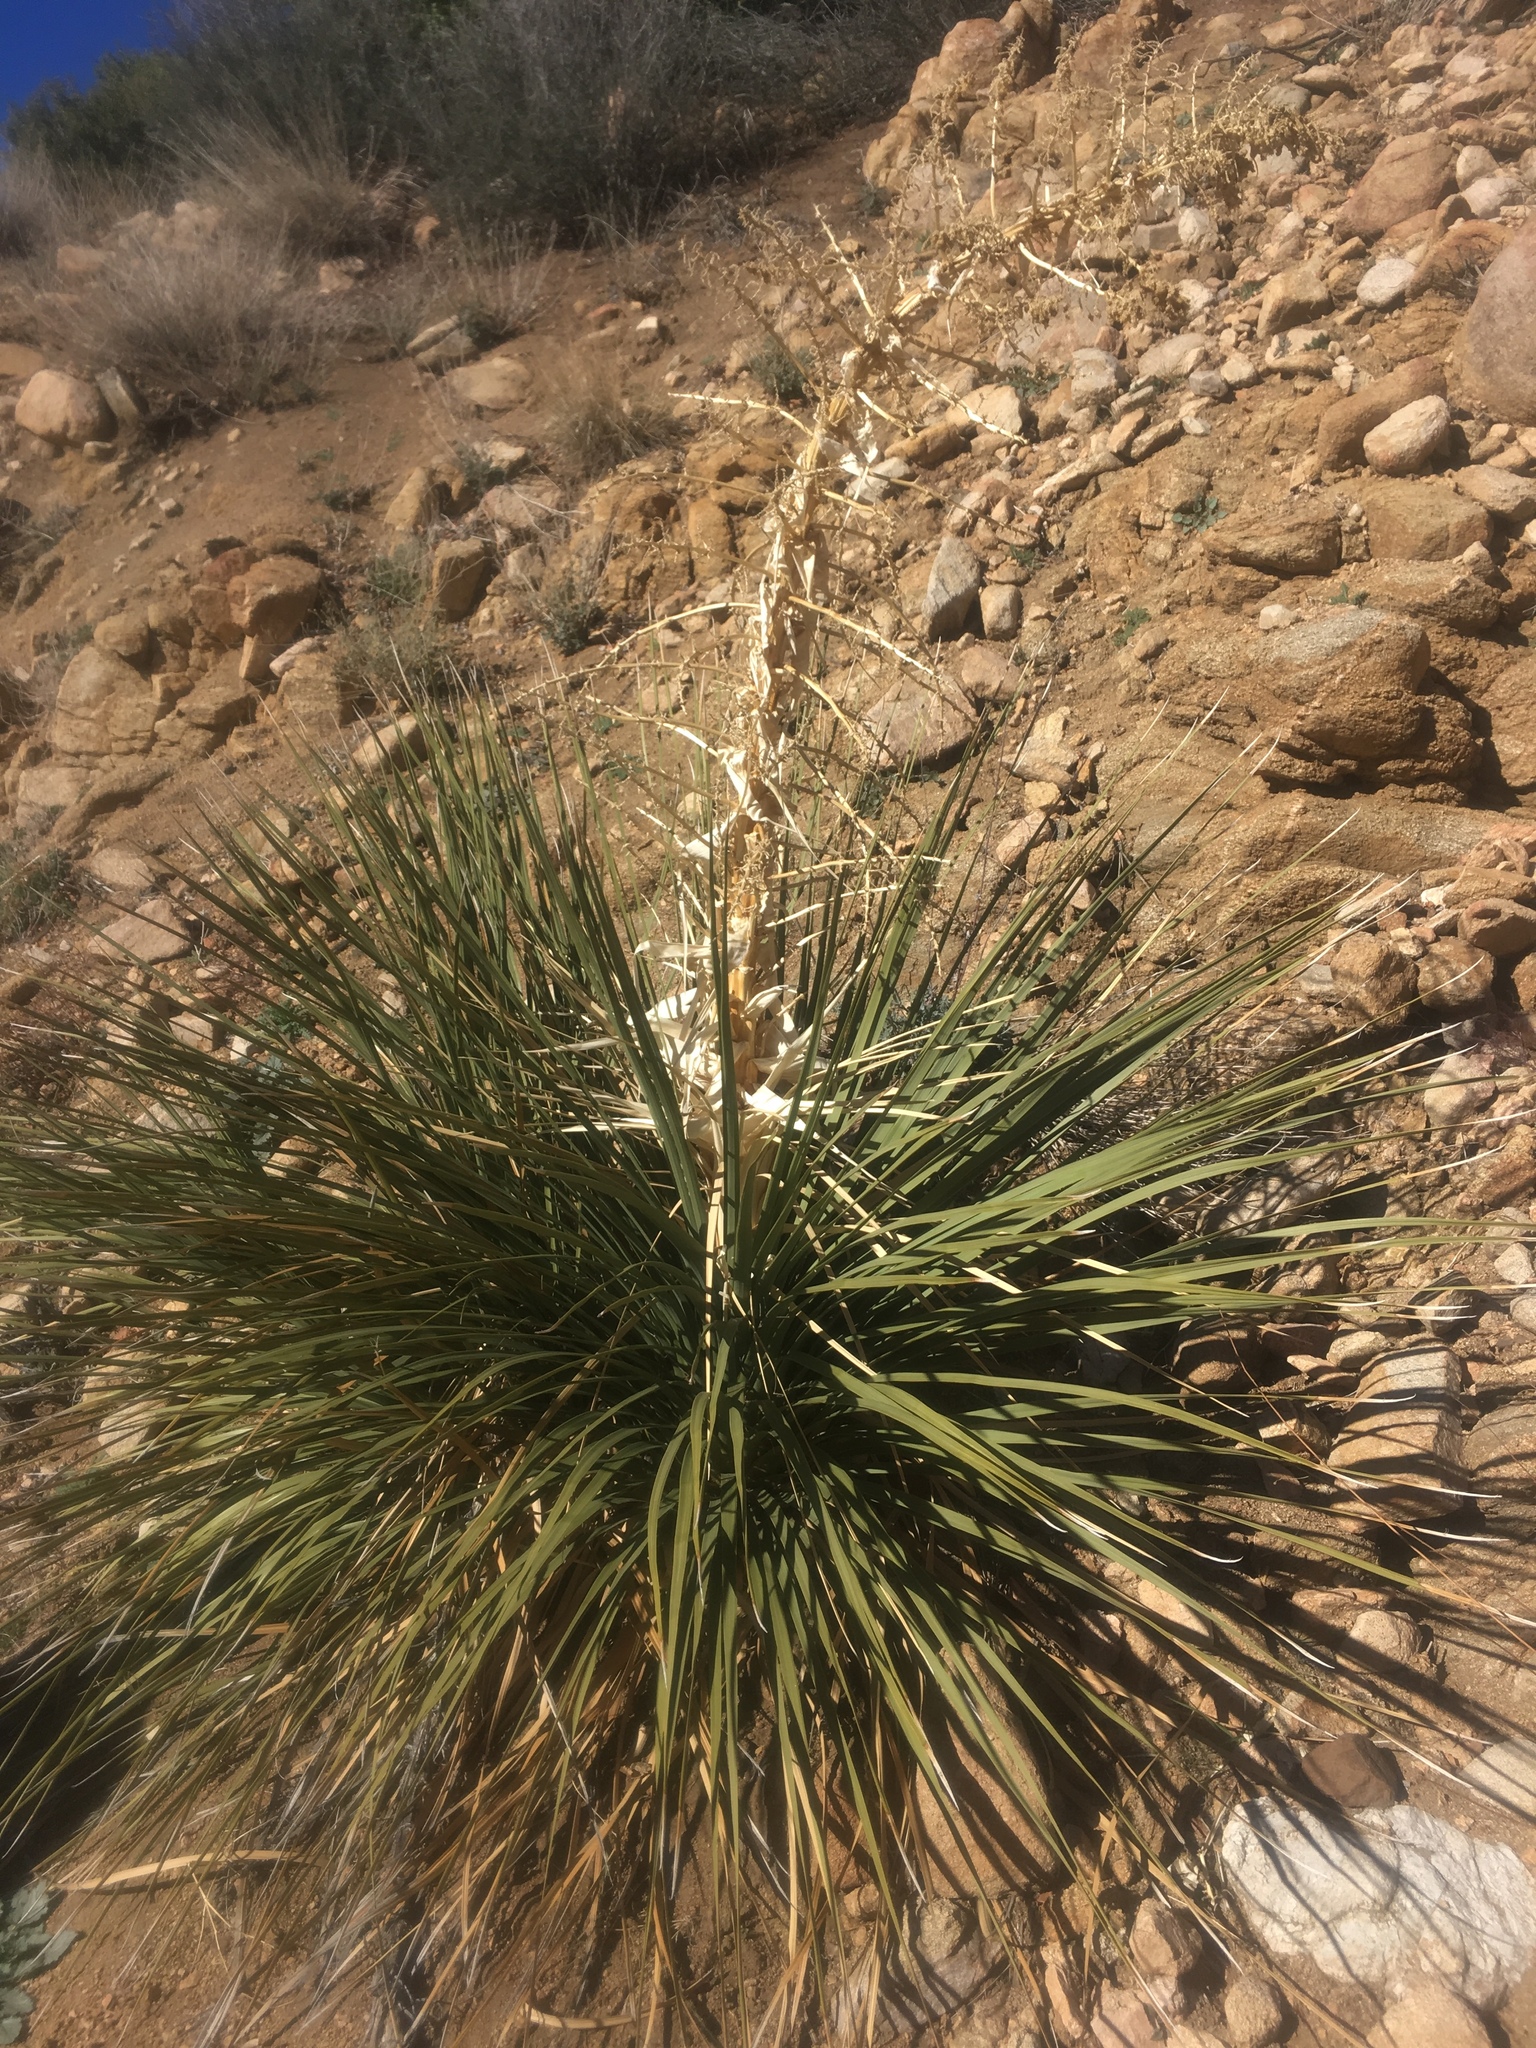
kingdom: Plantae
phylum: Tracheophyta
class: Liliopsida
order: Asparagales
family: Asparagaceae
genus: Nolina
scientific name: Nolina parryi
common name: Parry nolina
